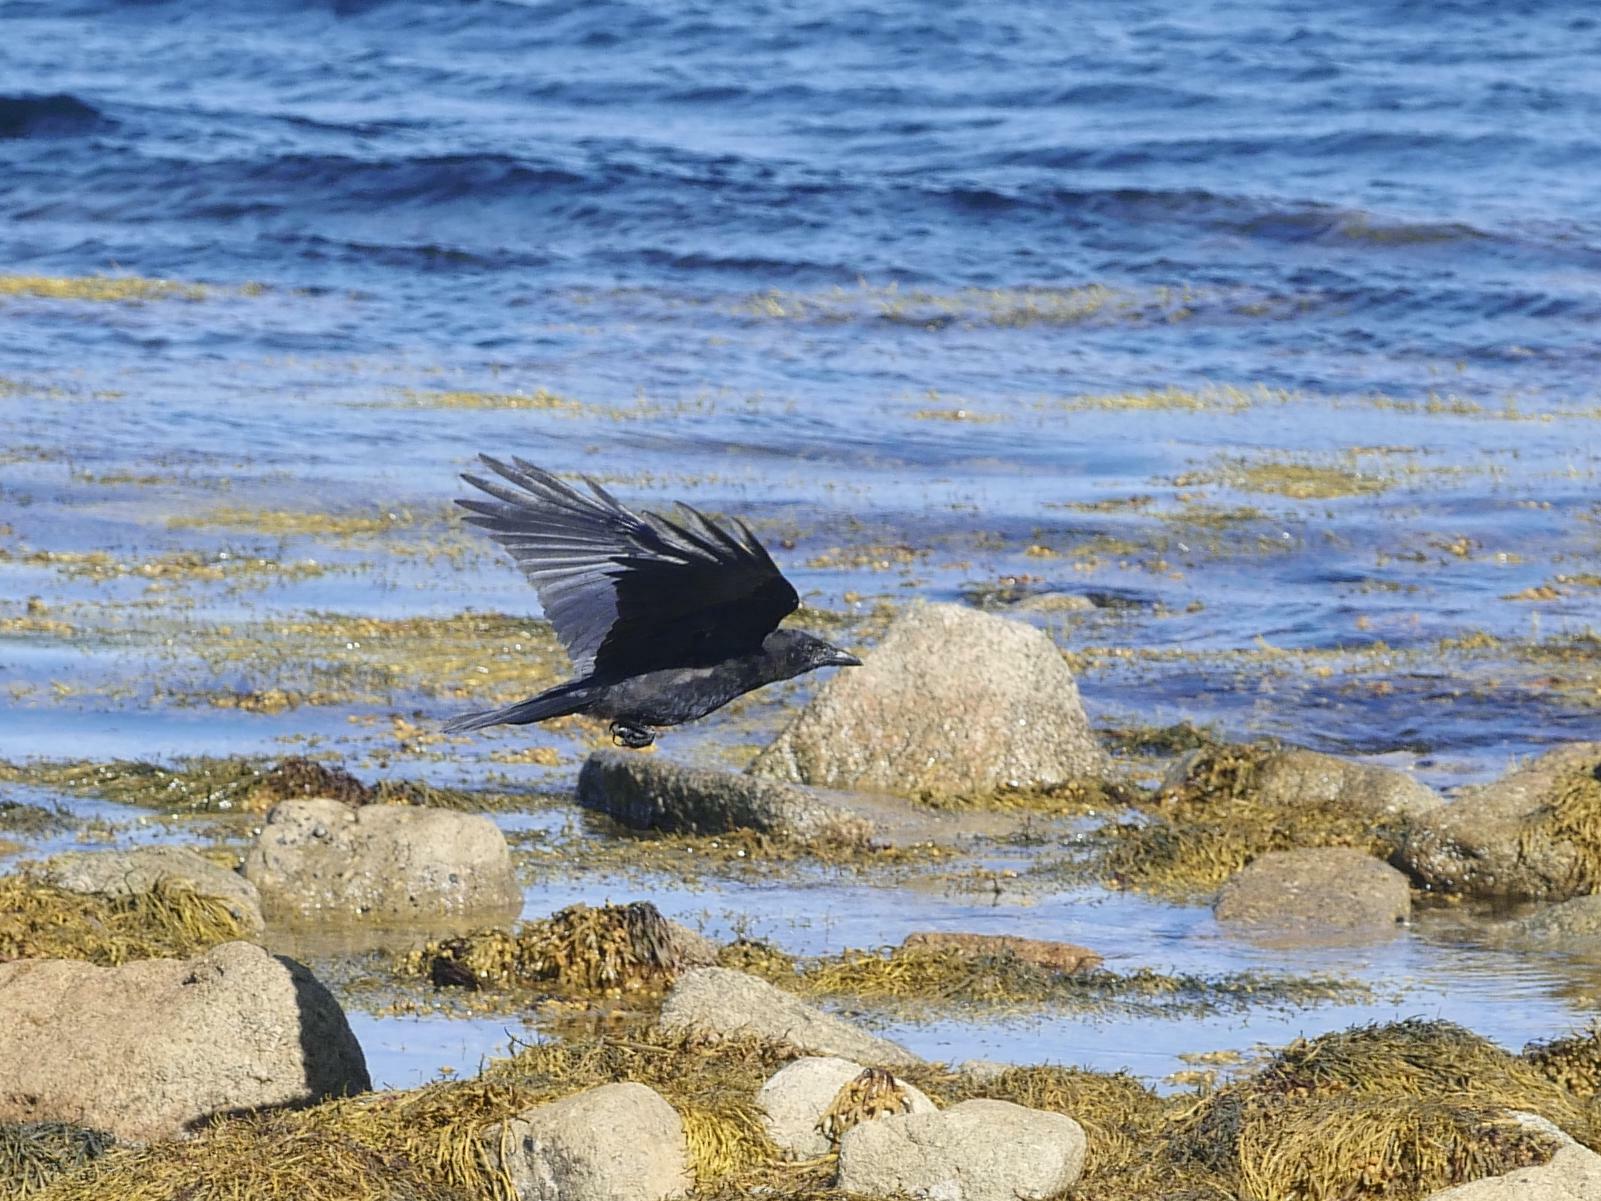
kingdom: Animalia
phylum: Chordata
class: Aves
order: Passeriformes
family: Corvidae
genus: Corvus
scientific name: Corvus brachyrhynchos
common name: American crow
